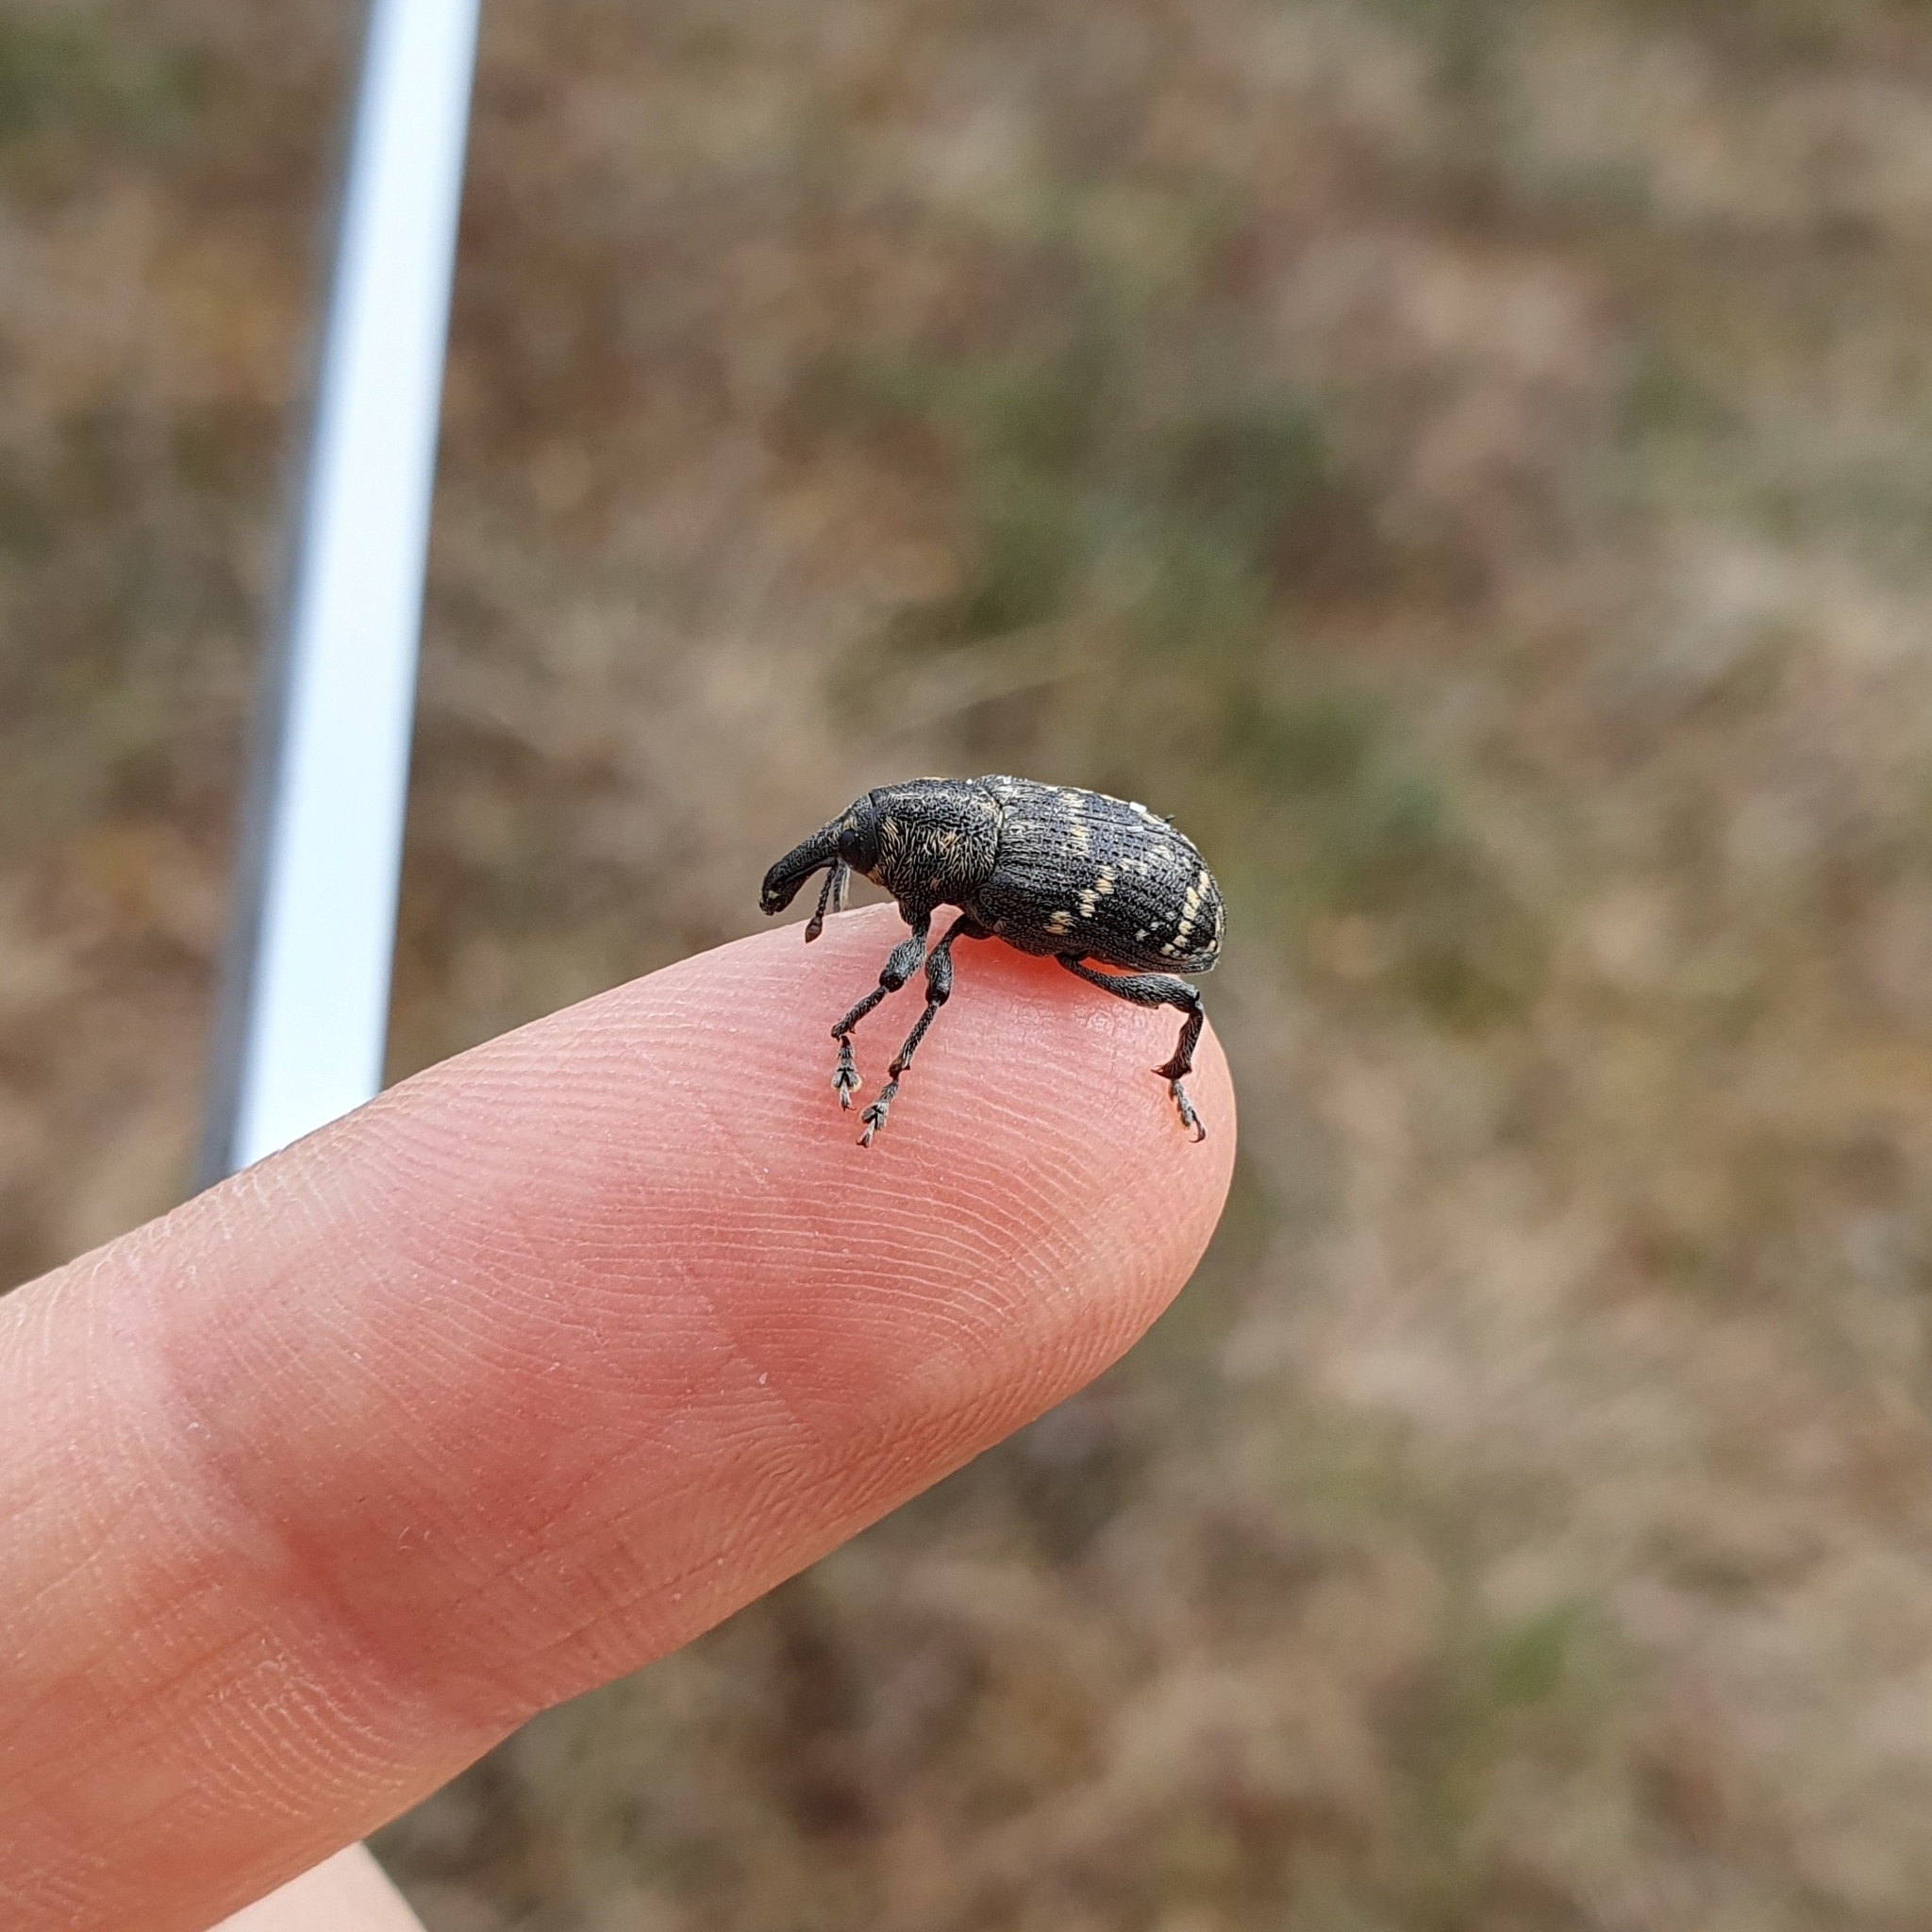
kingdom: Animalia
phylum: Arthropoda
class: Insecta
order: Coleoptera
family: Curculionidae
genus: Hylobius
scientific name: Hylobius abietis
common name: Large pine weevil
